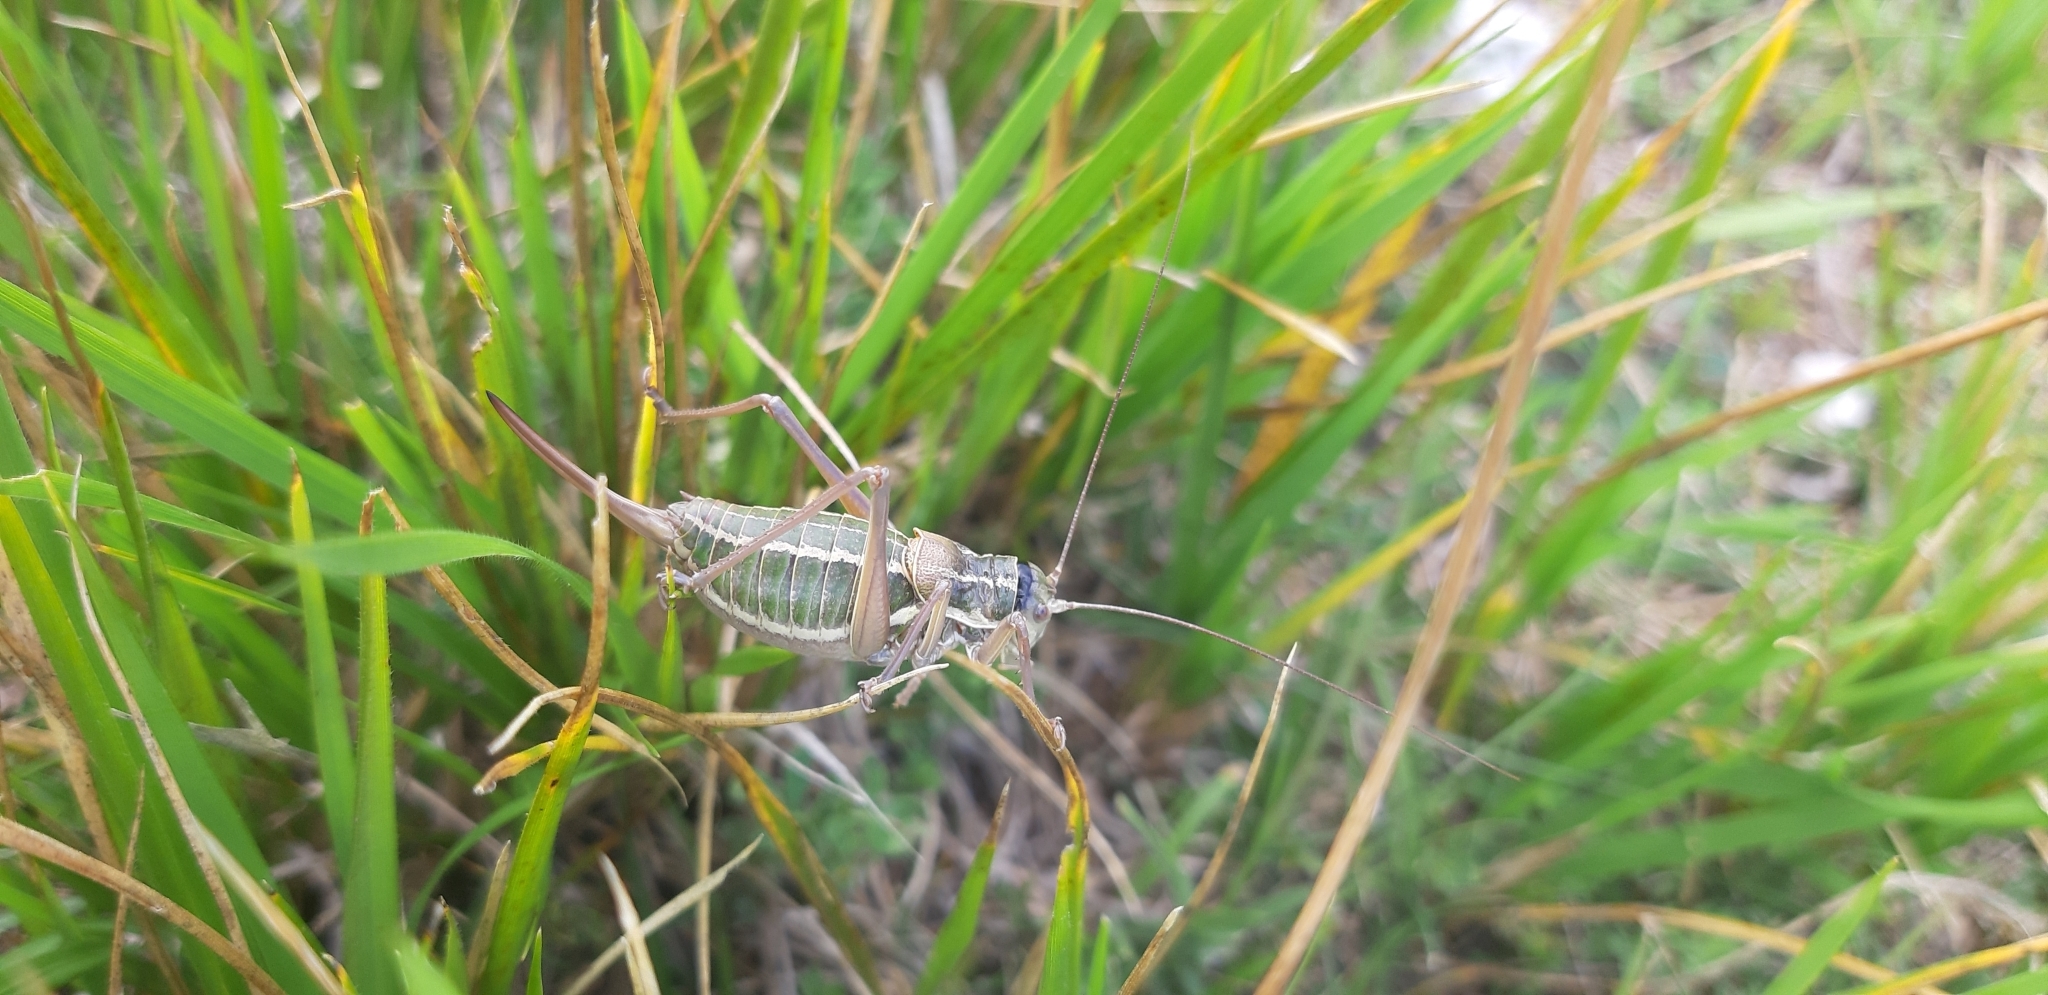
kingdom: Animalia
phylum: Arthropoda
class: Insecta
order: Orthoptera
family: Tettigoniidae
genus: Ephippiger
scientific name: Ephippiger ruffoi
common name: Pygmy saddle bush-cricket
